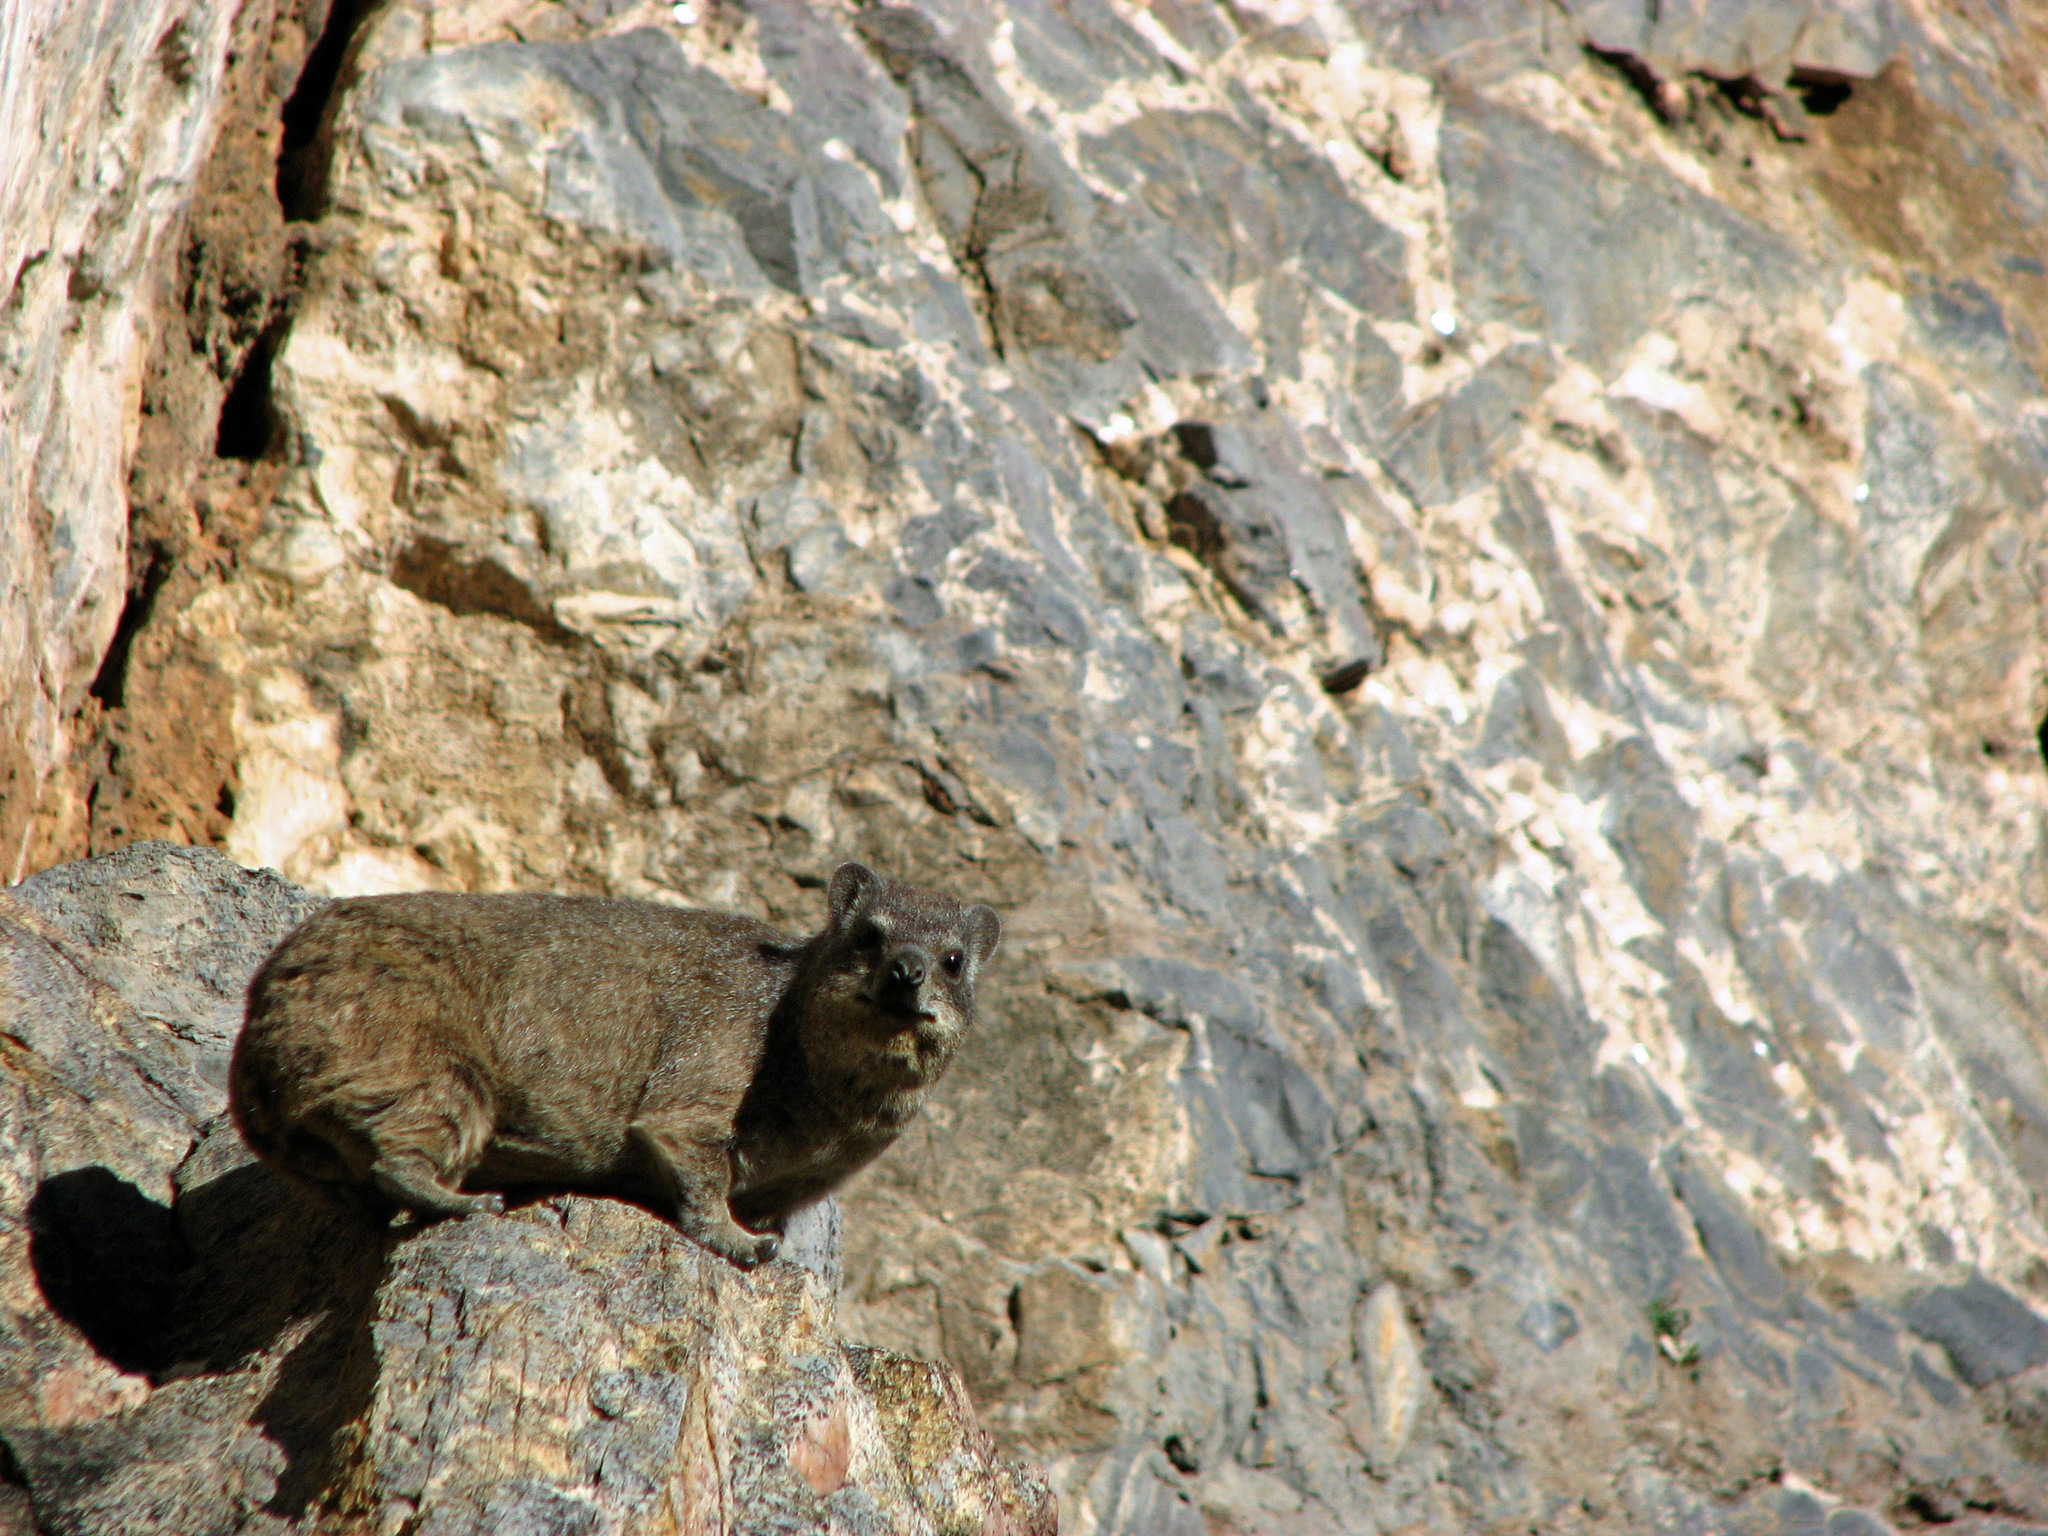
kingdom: Animalia
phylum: Chordata
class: Mammalia
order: Hyracoidea
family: Procaviidae
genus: Procavia
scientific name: Procavia capensis
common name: Rock hyrax
